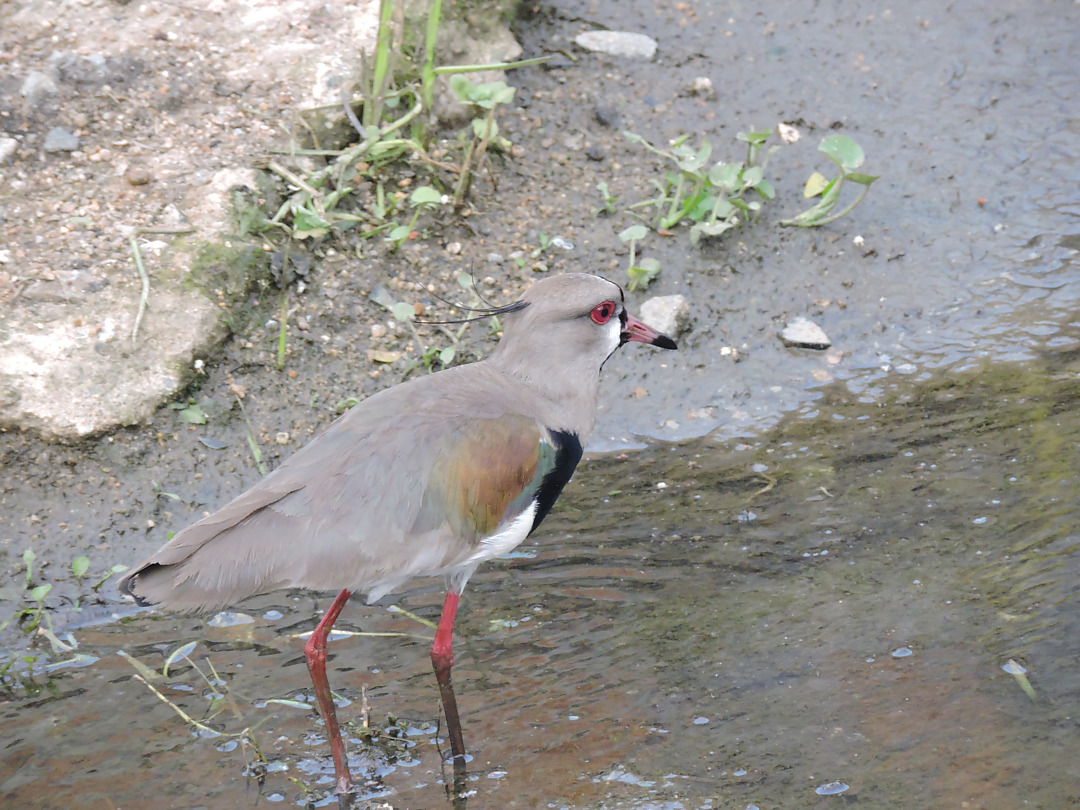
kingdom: Animalia
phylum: Chordata
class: Aves
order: Charadriiformes
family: Charadriidae
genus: Vanellus
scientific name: Vanellus chilensis
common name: Southern lapwing
